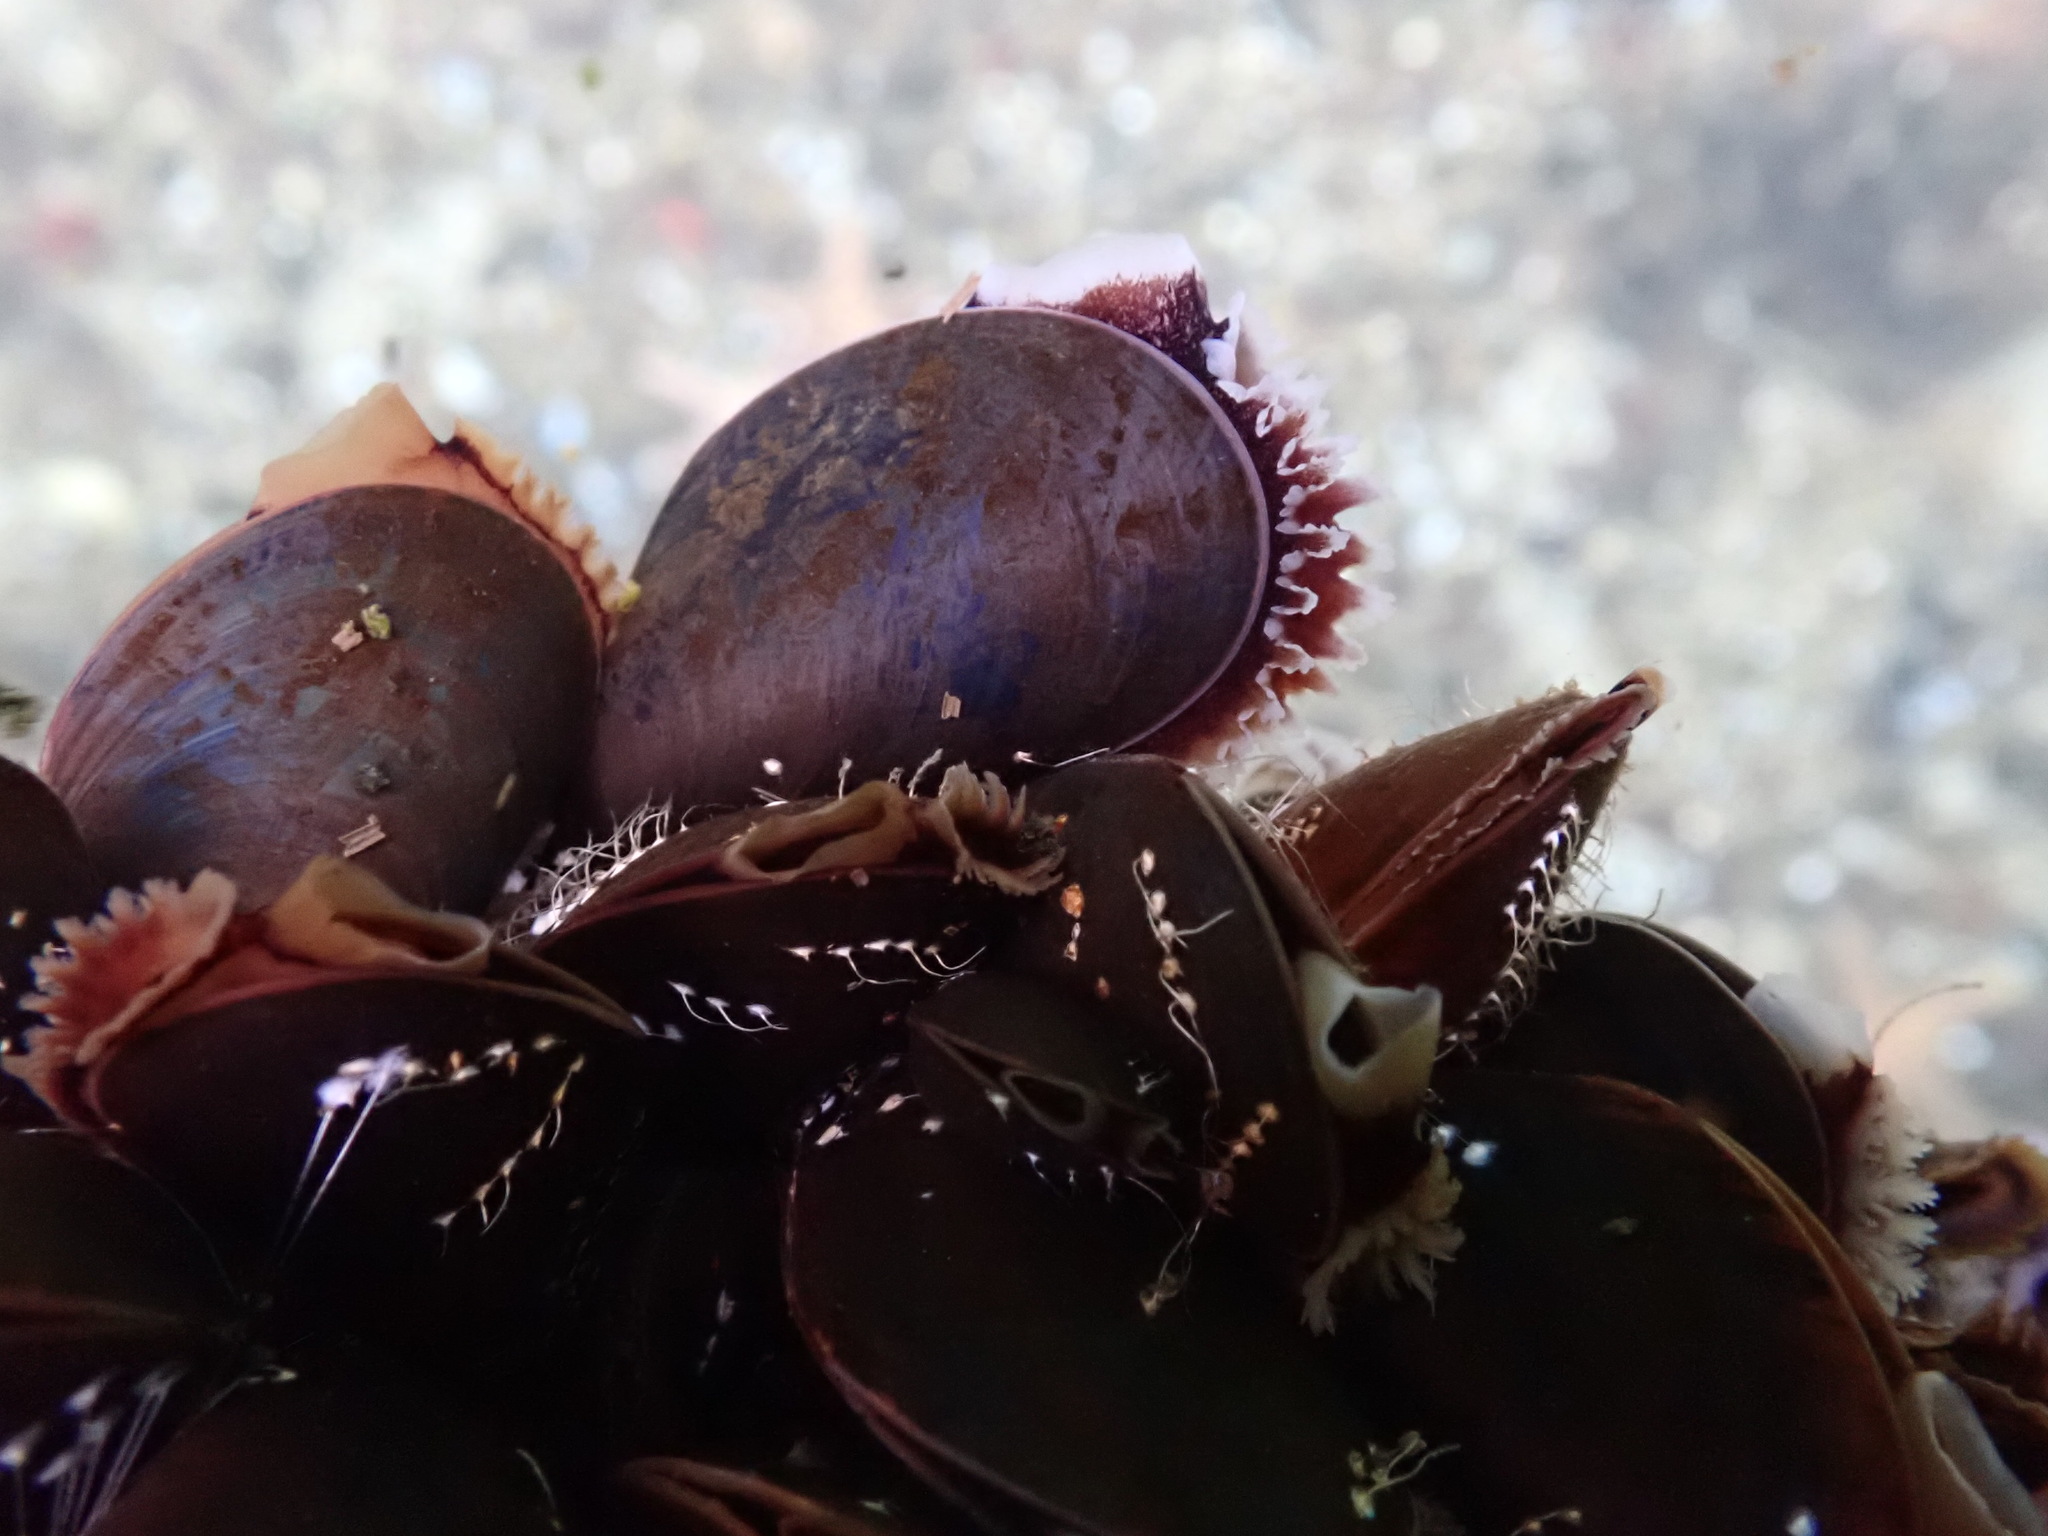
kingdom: Animalia
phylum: Mollusca
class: Bivalvia
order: Mytilida
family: Mytilidae
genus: Mytilus
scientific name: Mytilus edulis
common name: Blue mussel
